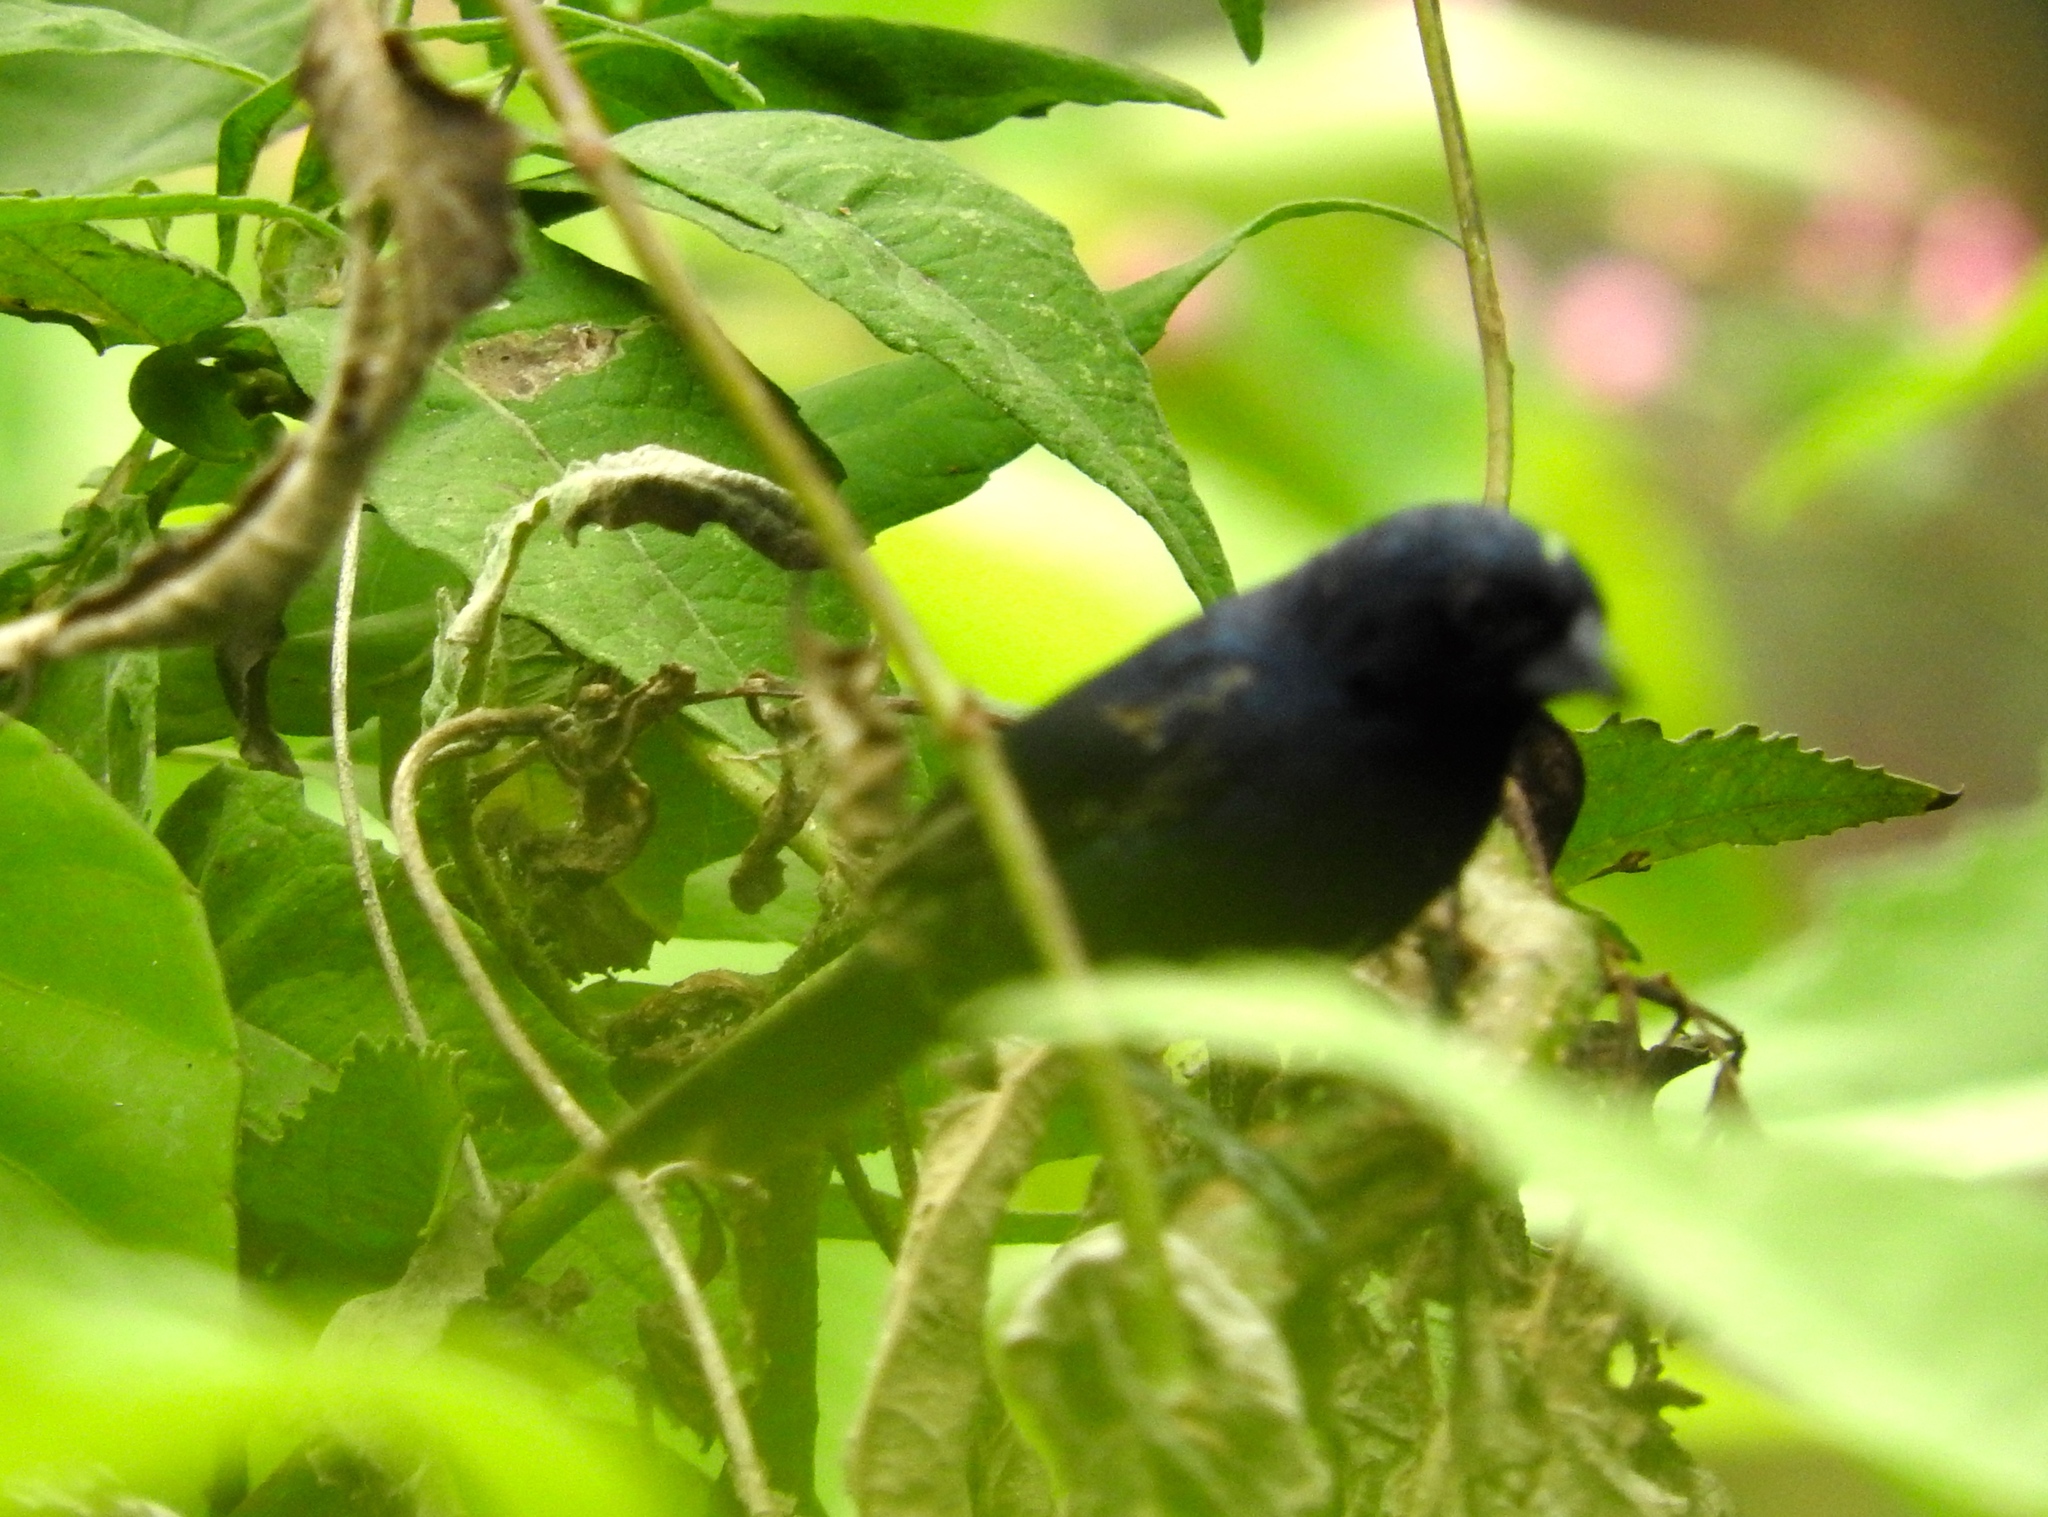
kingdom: Animalia
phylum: Chordata
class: Aves
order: Passeriformes
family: Thraupidae
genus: Volatinia
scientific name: Volatinia jacarina
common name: Blue-black grassquit
